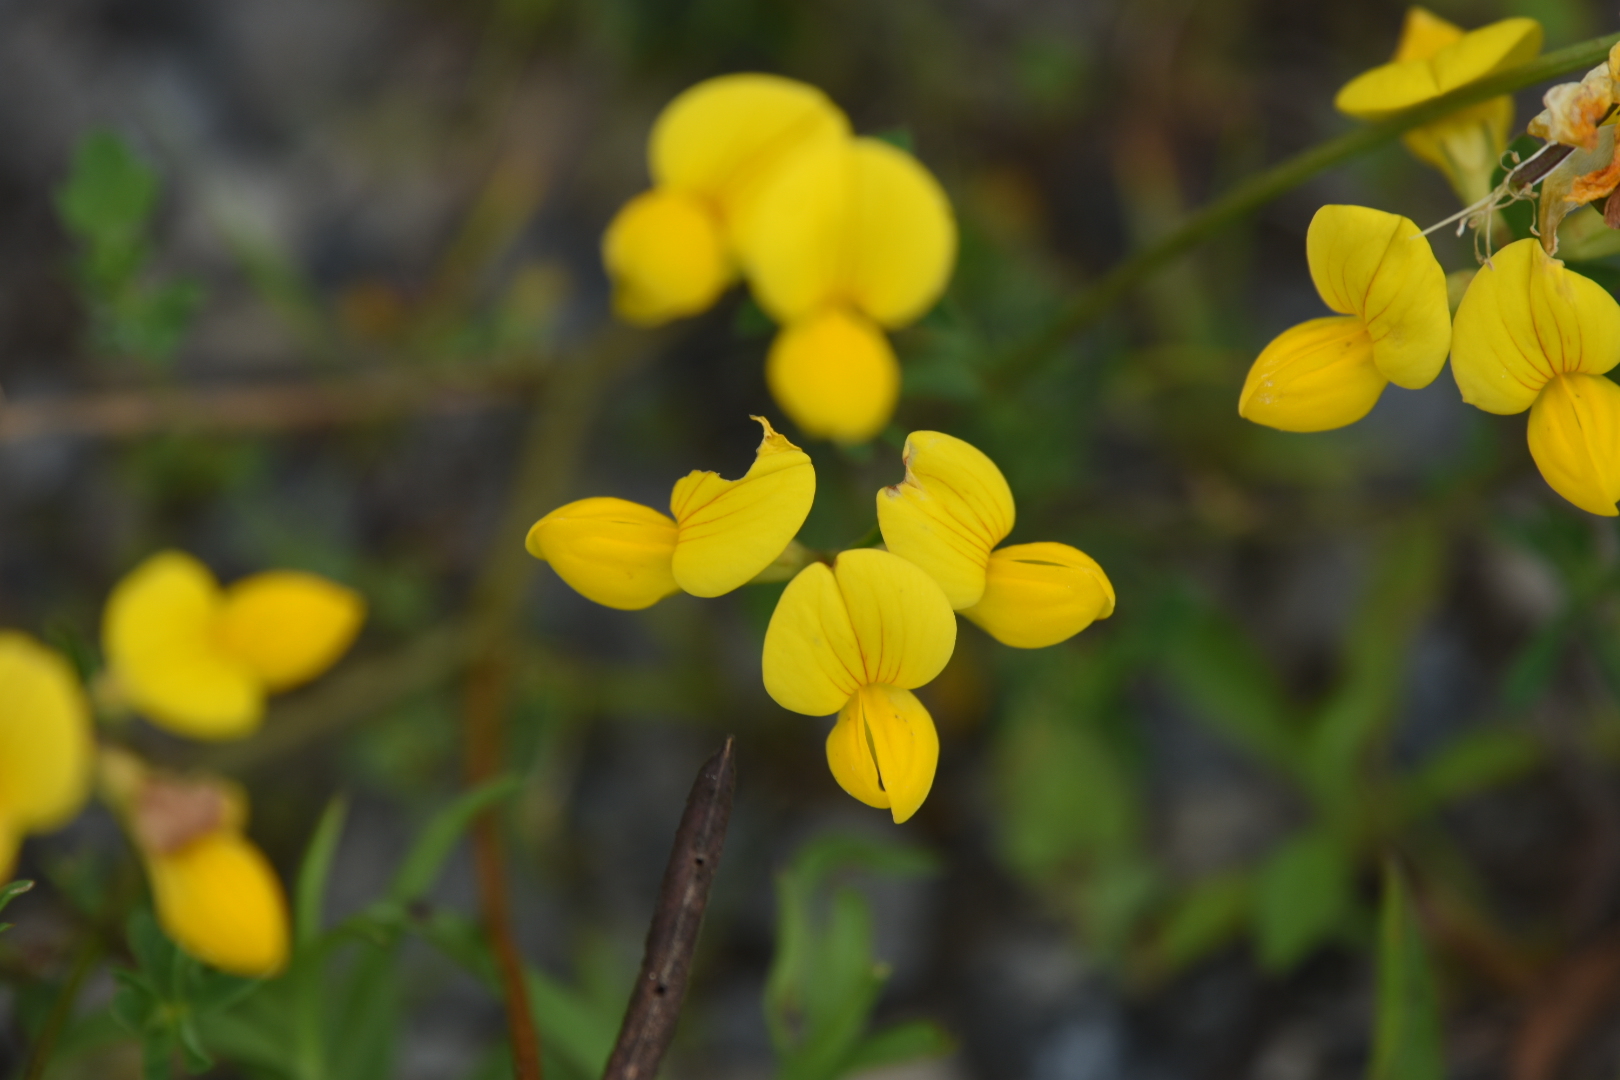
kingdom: Plantae
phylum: Tracheophyta
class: Magnoliopsida
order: Fabales
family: Fabaceae
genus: Lotus
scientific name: Lotus corniculatus
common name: Common bird's-foot-trefoil
